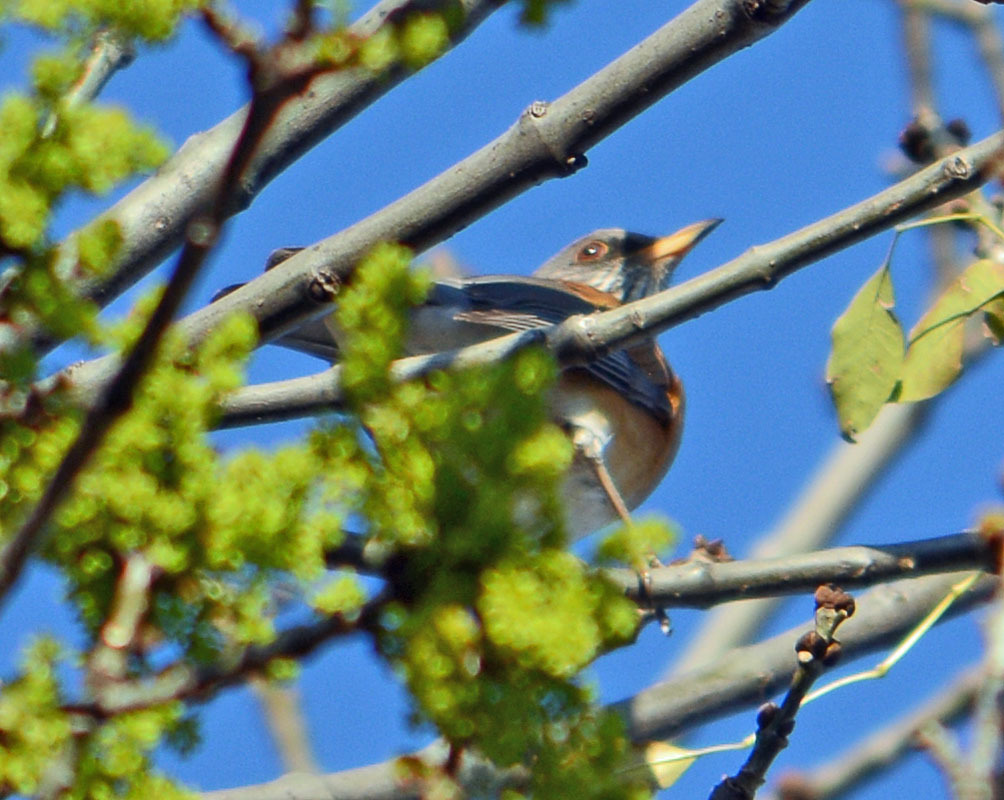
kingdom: Animalia
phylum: Chordata
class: Aves
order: Passeriformes
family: Turdidae
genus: Turdus
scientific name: Turdus rufopalliatus
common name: Rufous-backed robin
